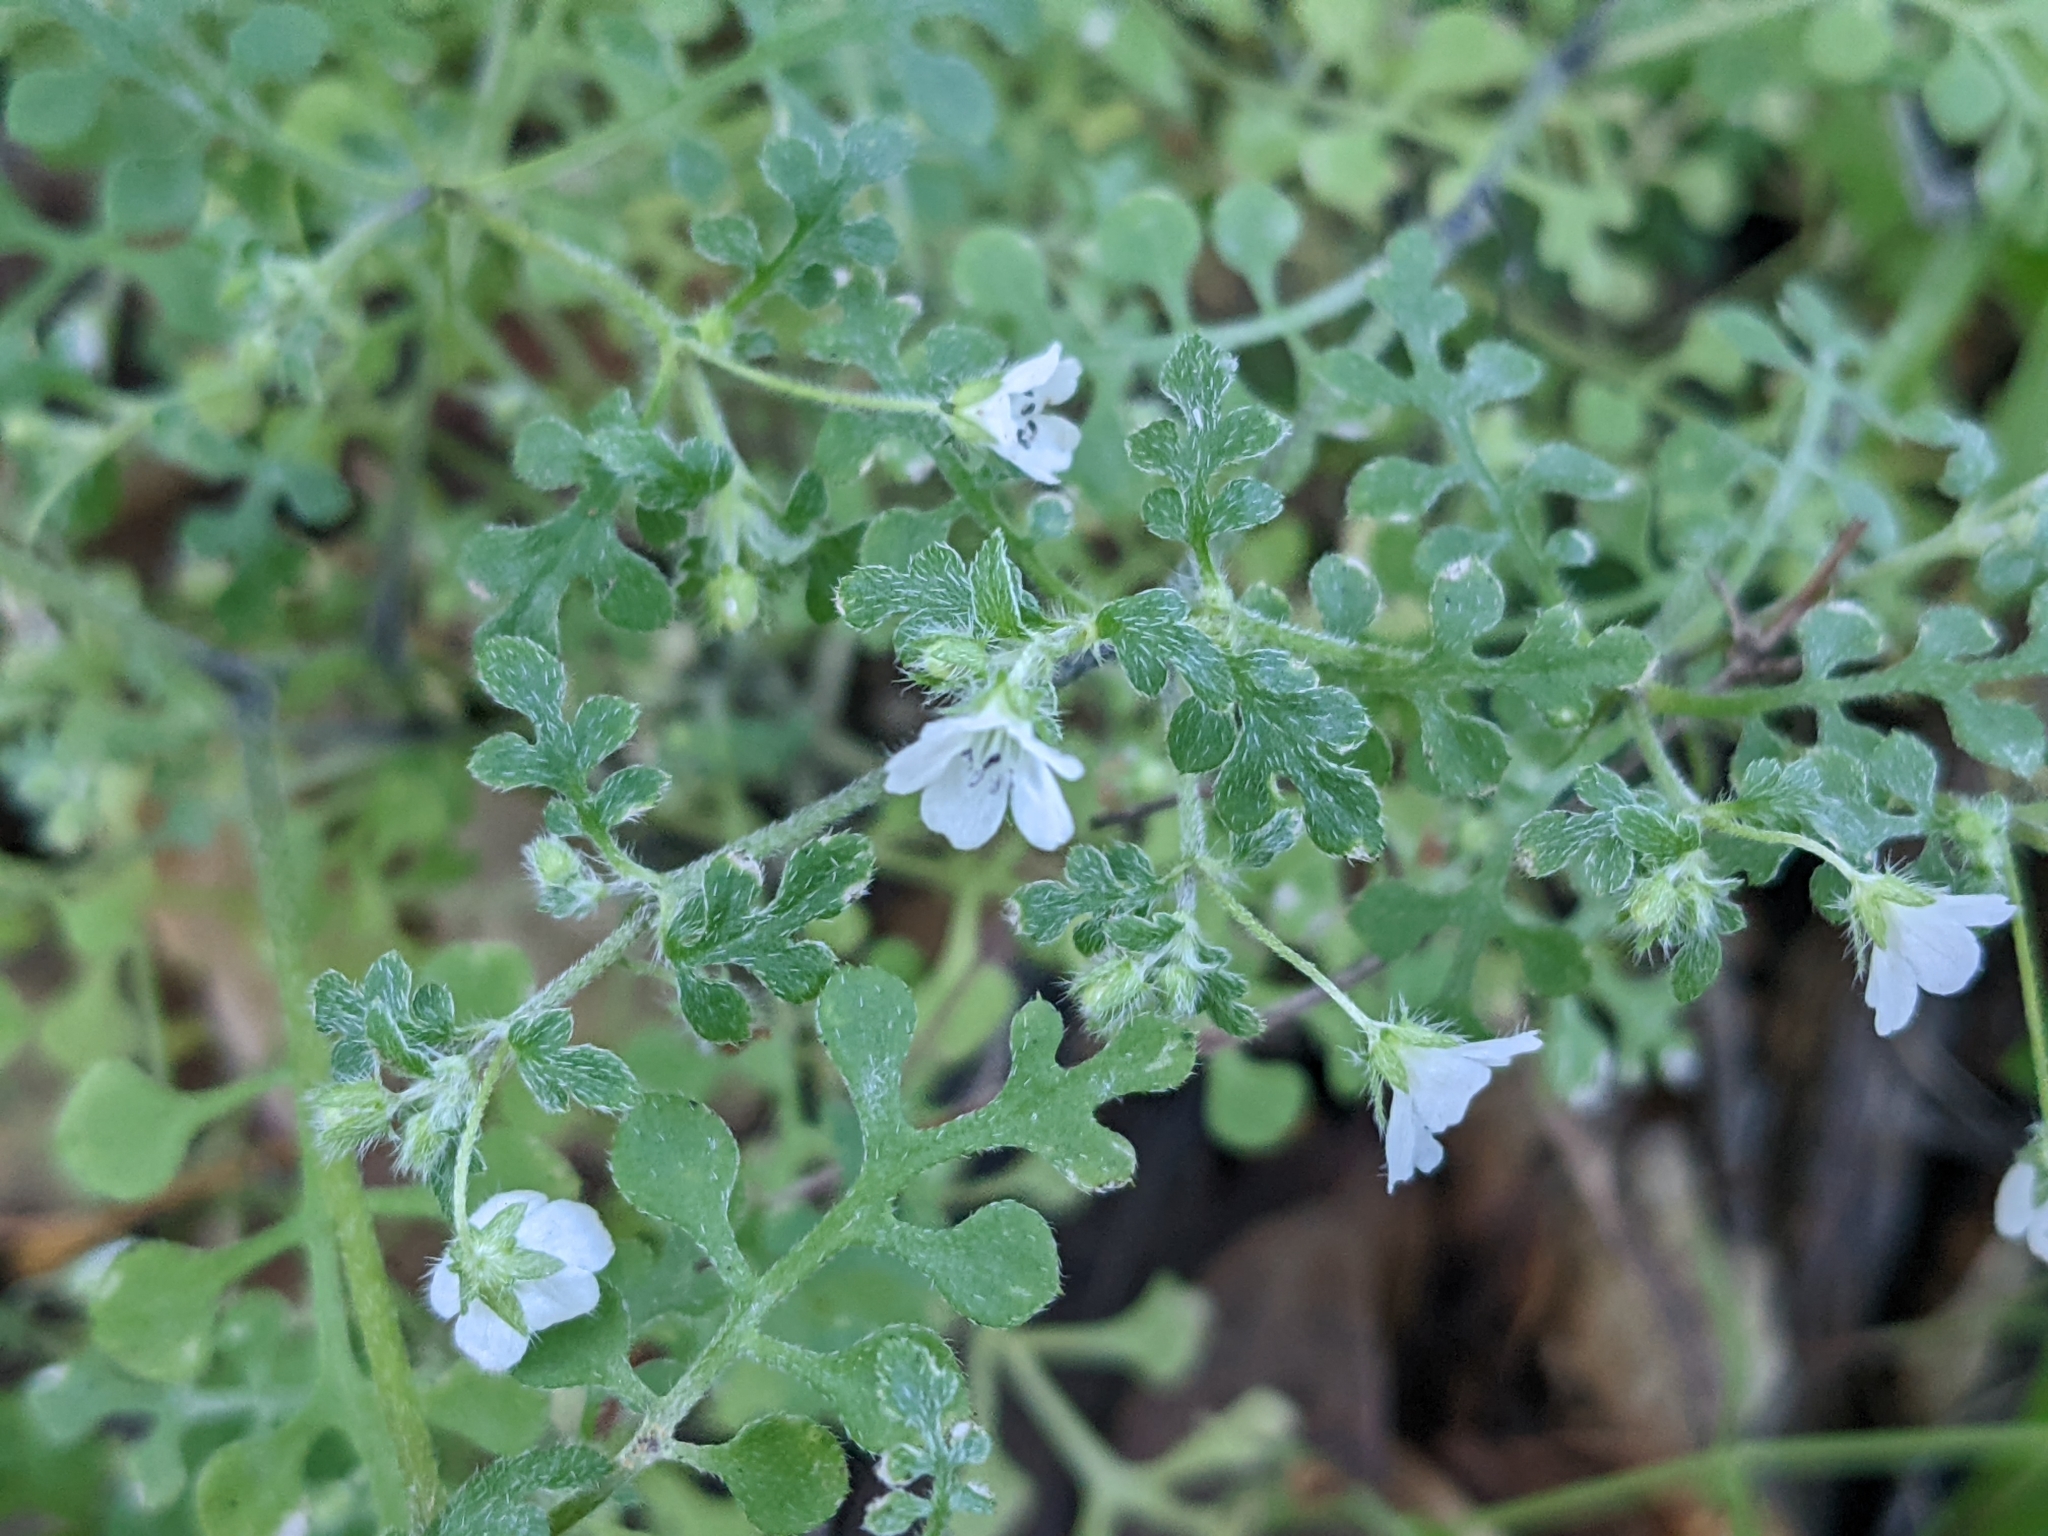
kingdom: Plantae
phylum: Tracheophyta
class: Magnoliopsida
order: Boraginales
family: Hydrophyllaceae
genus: Nemophila
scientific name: Nemophila heterophylla
